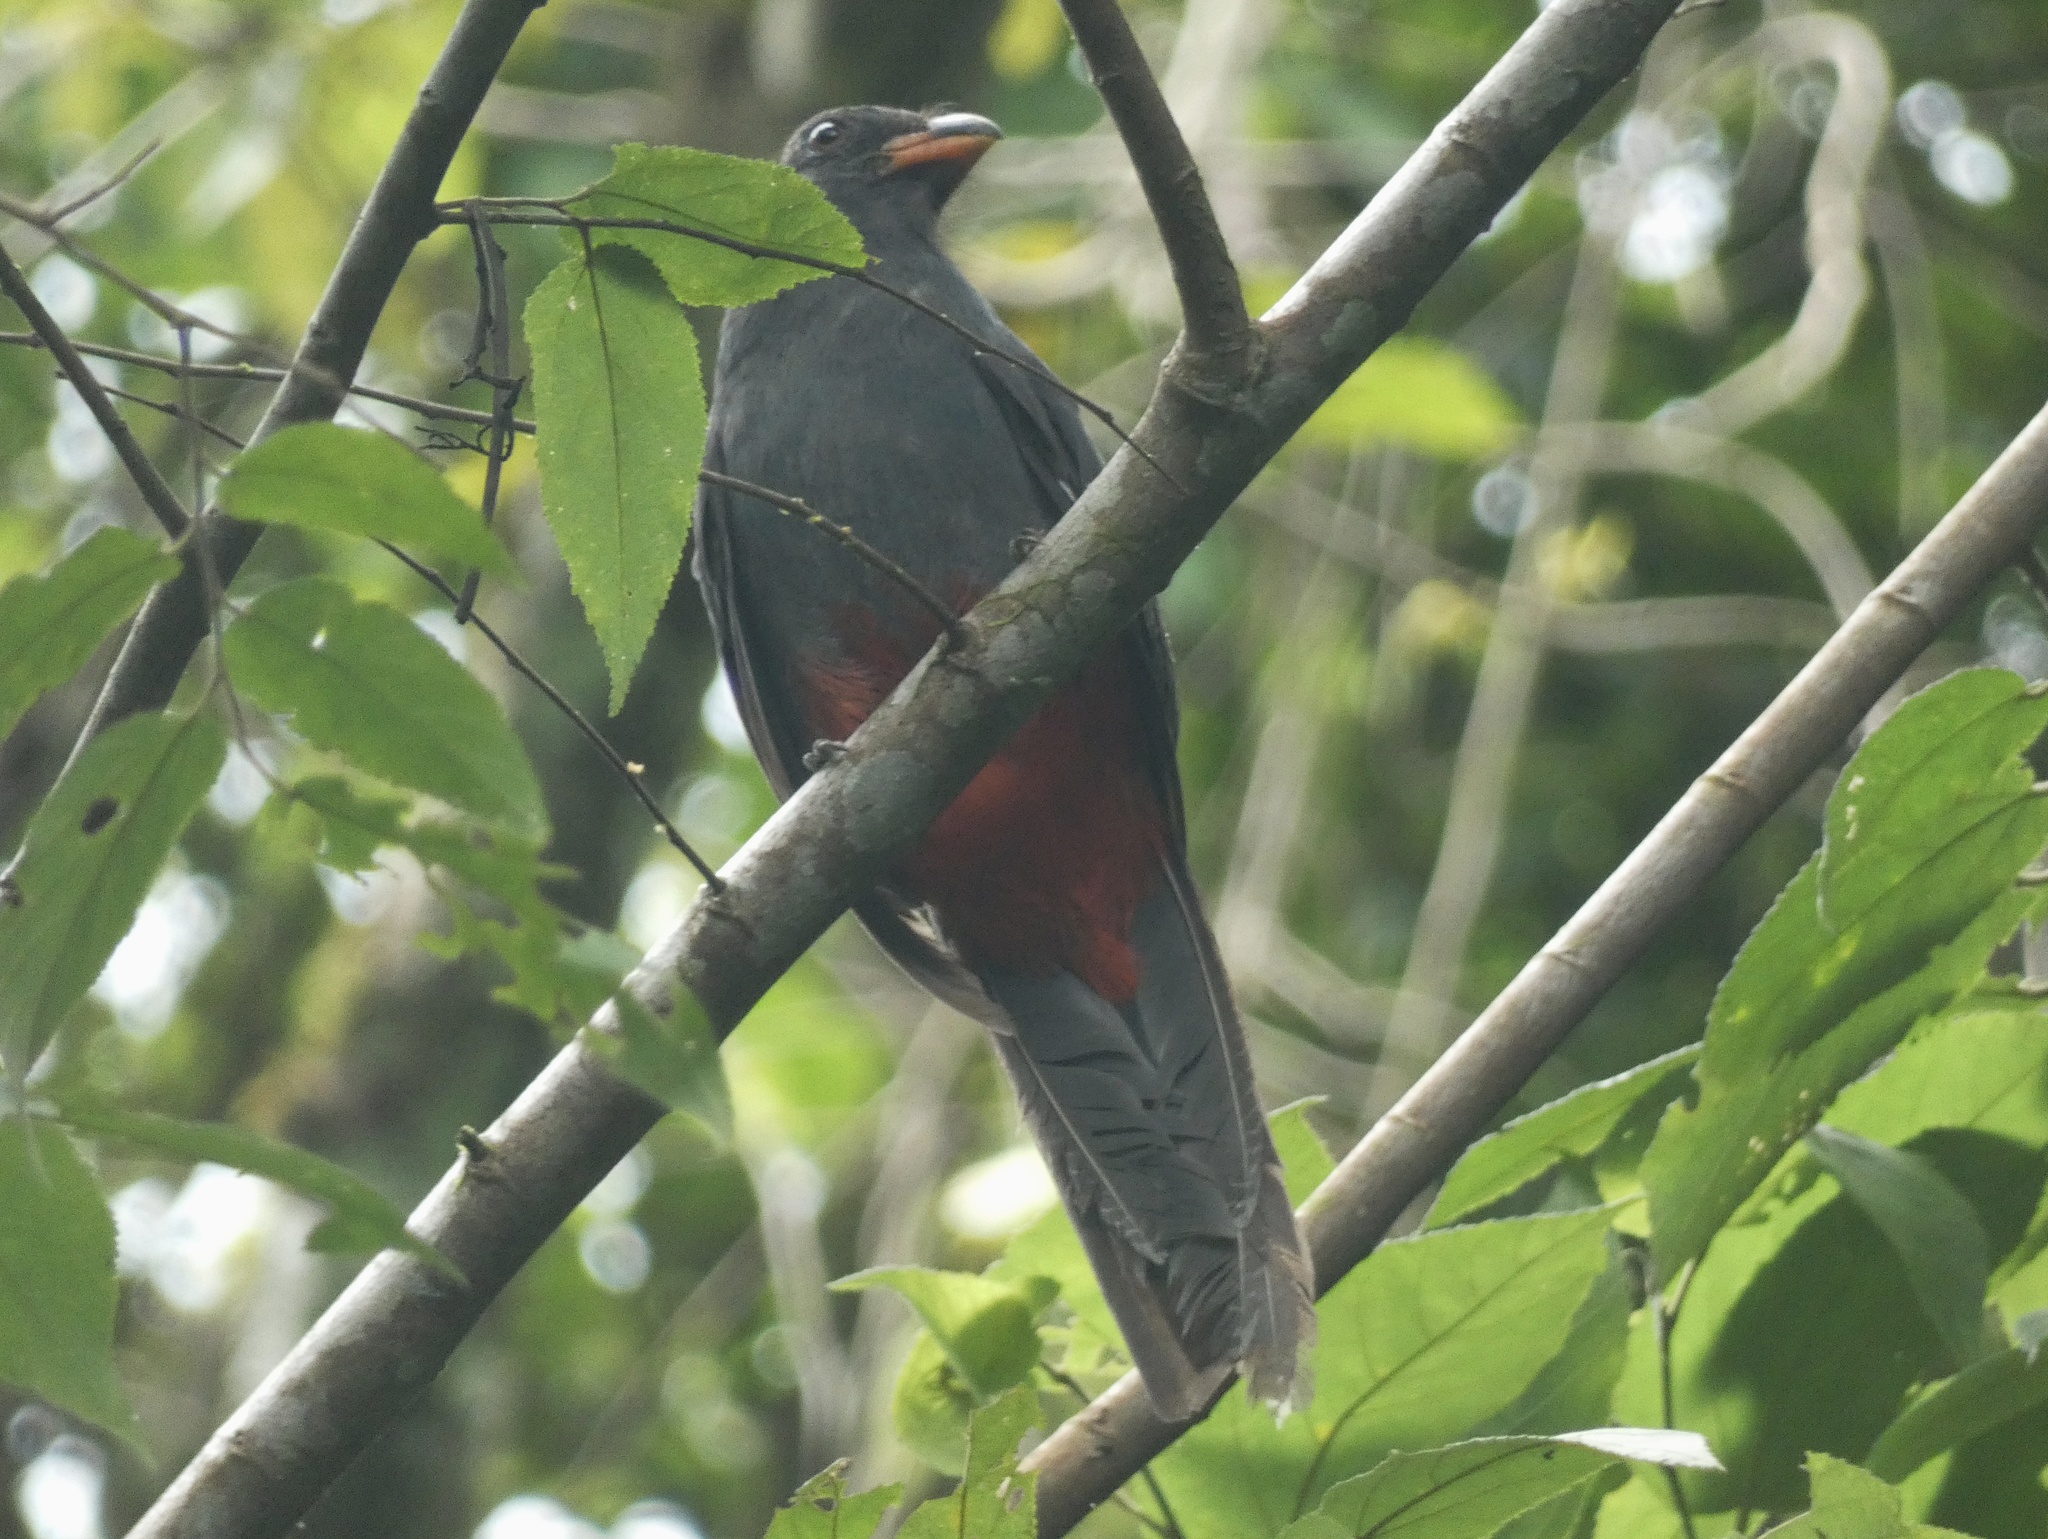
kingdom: Animalia
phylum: Chordata
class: Aves
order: Trogoniformes
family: Trogonidae
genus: Trogon
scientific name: Trogon massena
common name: Slaty-tailed trogon
